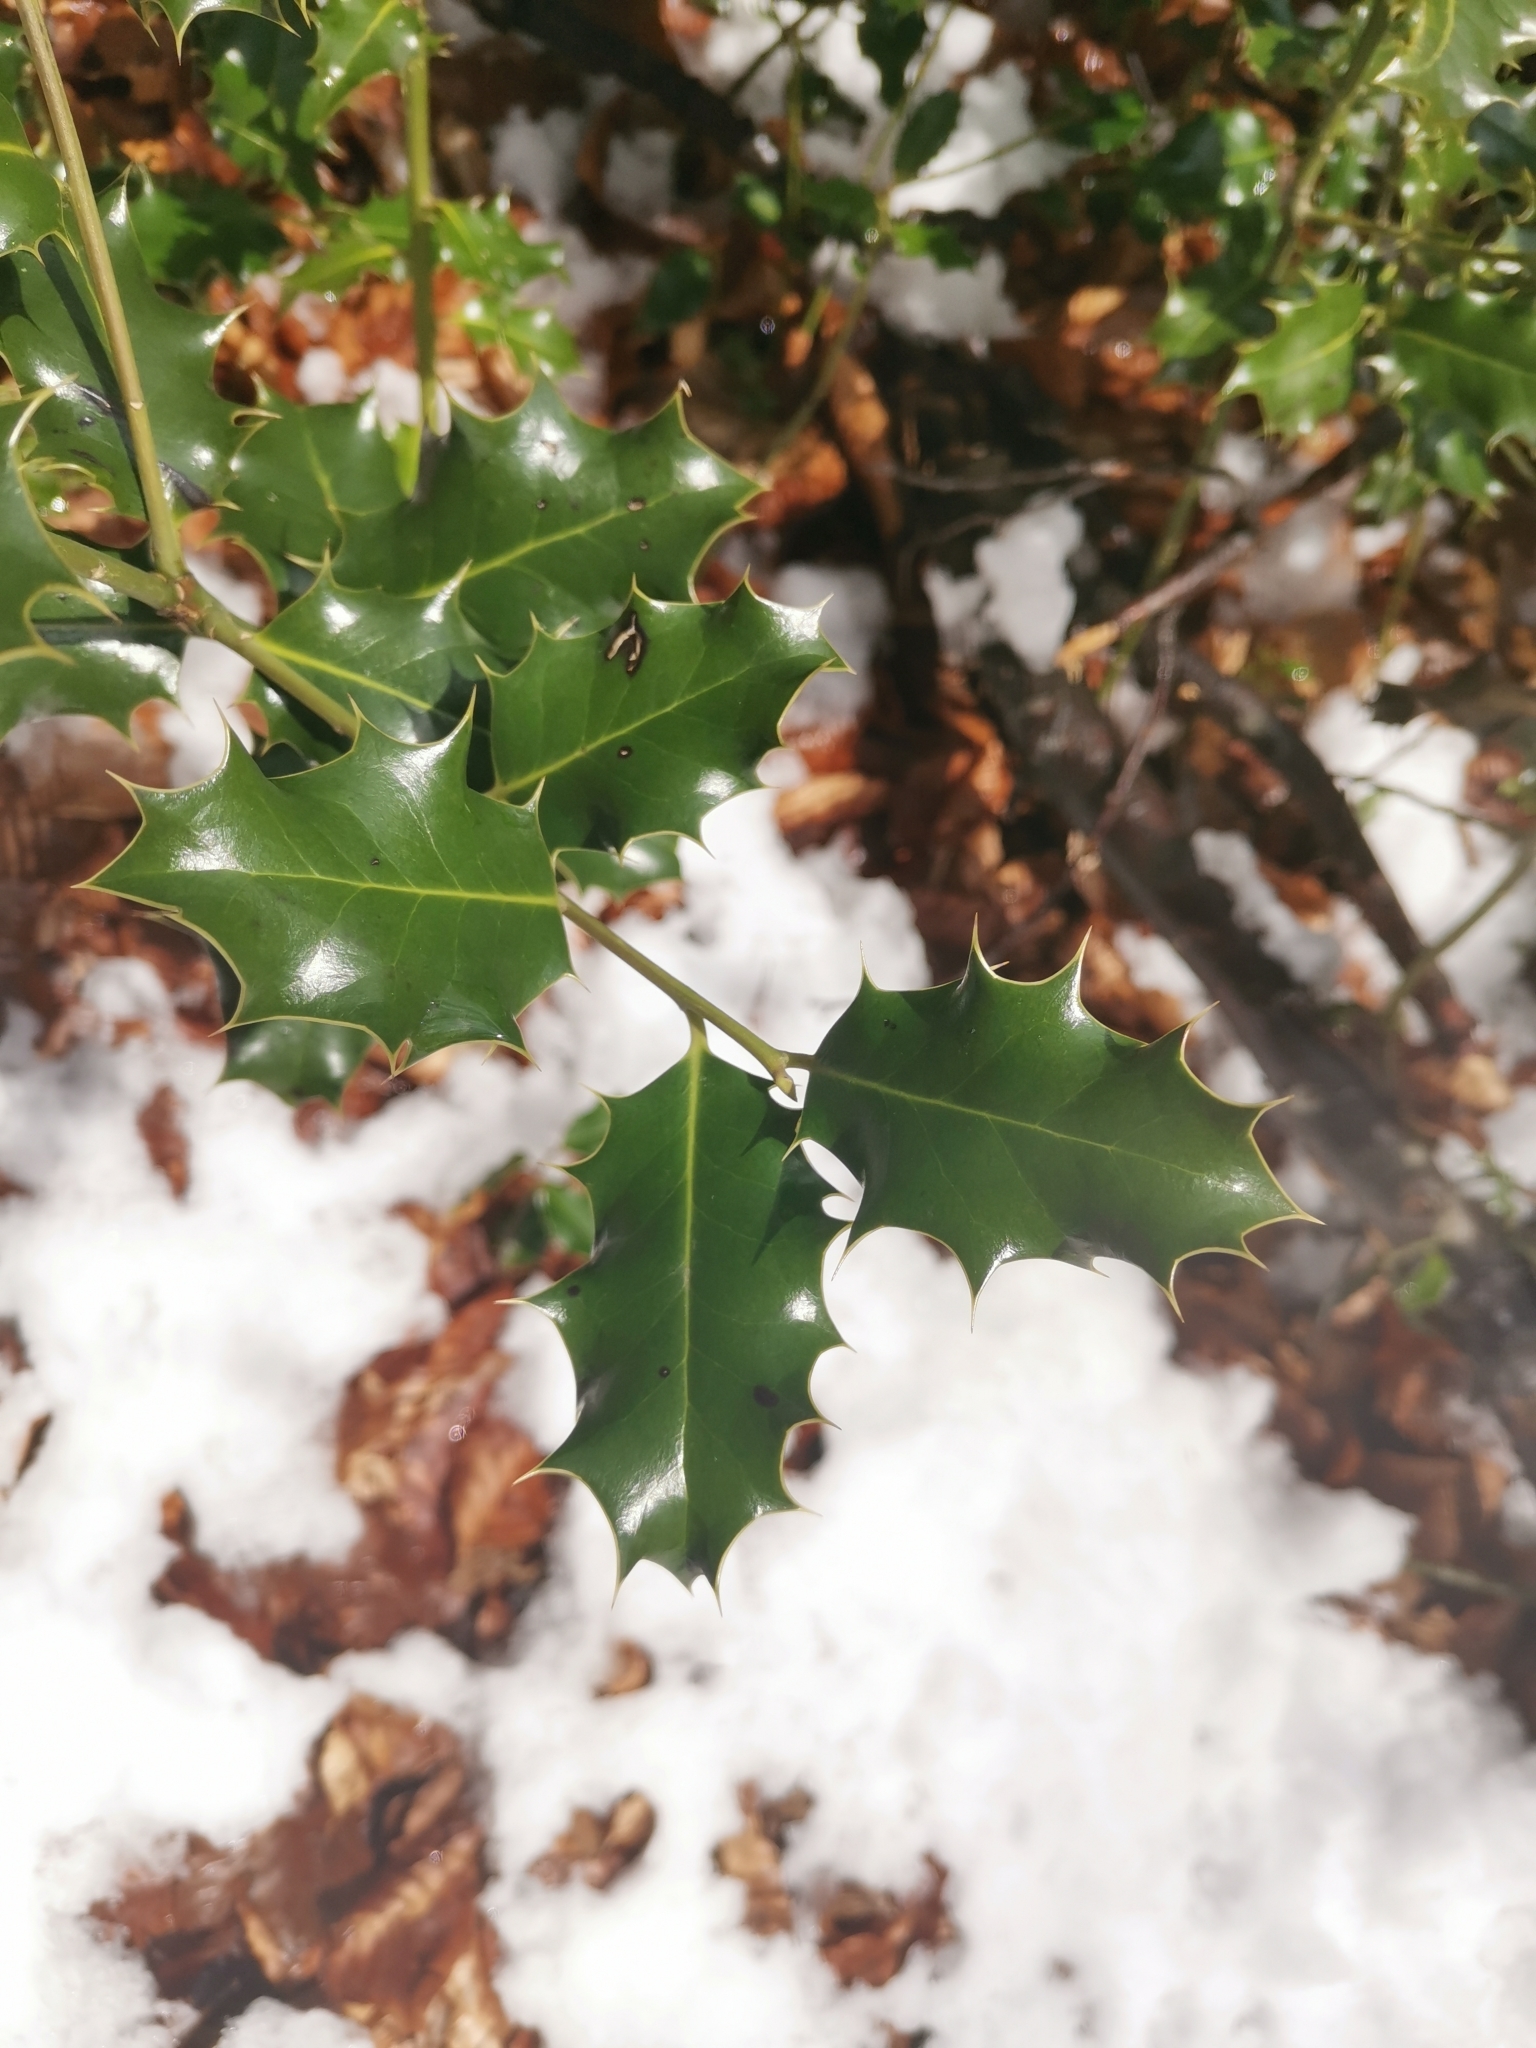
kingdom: Plantae
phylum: Tracheophyta
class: Magnoliopsida
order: Aquifoliales
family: Aquifoliaceae
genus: Ilex
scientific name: Ilex aquifolium
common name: English holly
